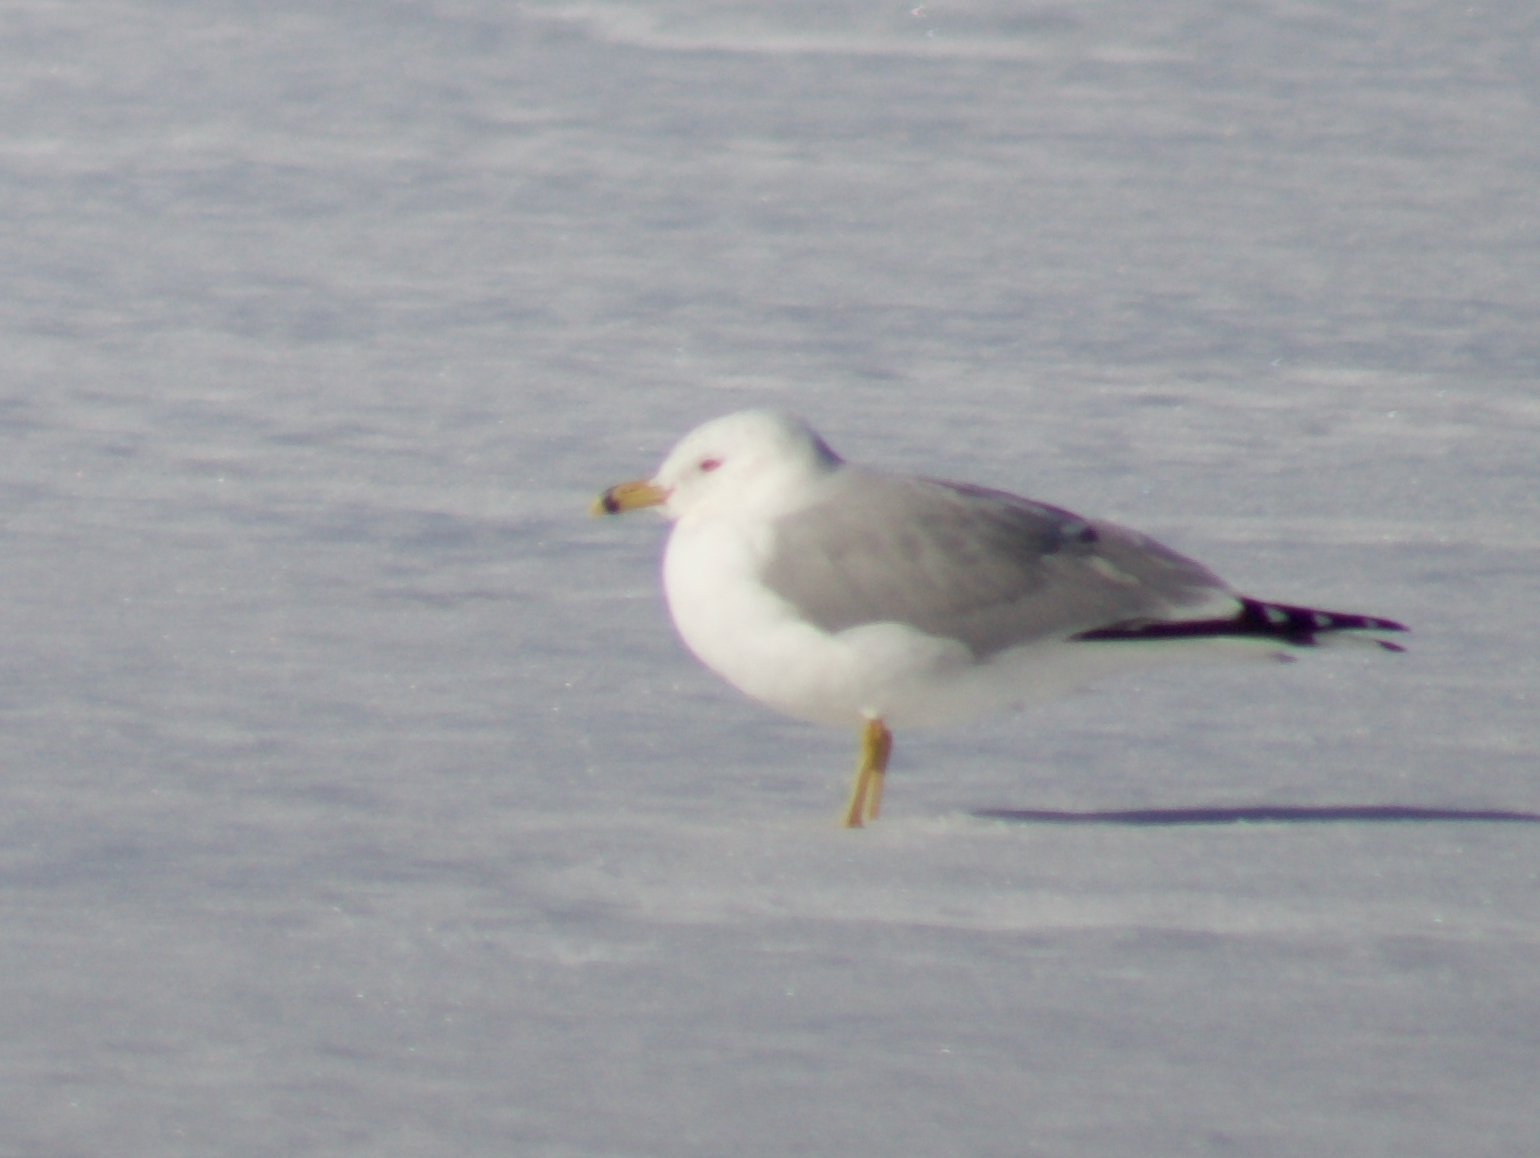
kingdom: Animalia
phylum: Chordata
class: Aves
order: Charadriiformes
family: Laridae
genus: Larus
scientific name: Larus delawarensis
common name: Ring-billed gull
